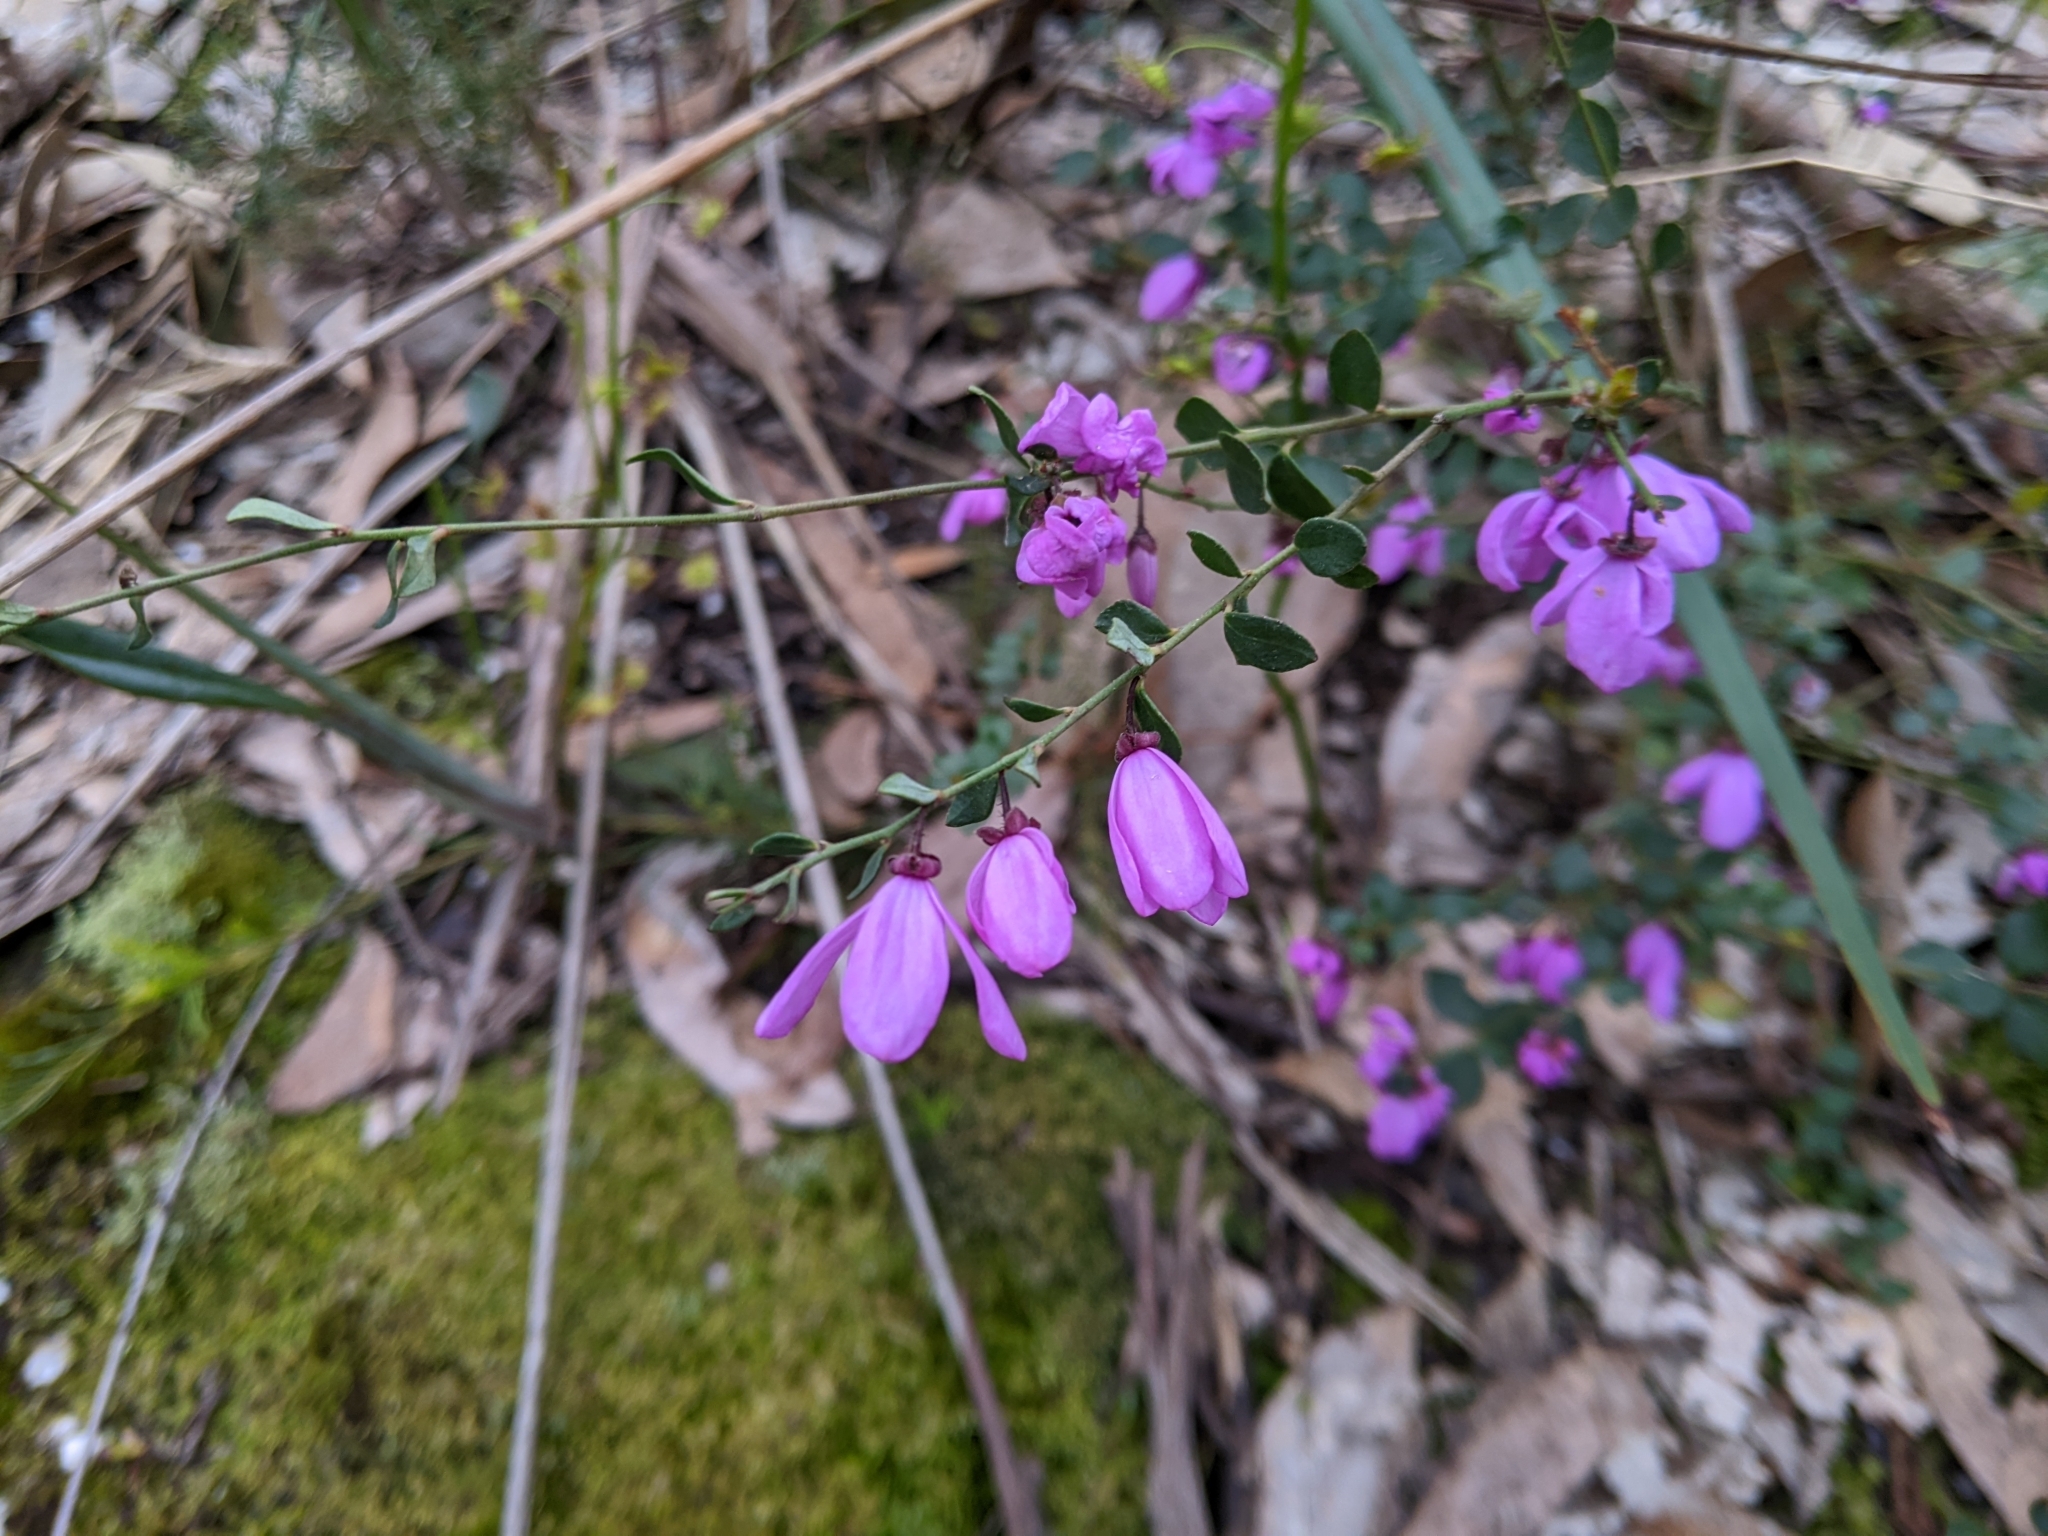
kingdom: Plantae
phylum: Tracheophyta
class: Magnoliopsida
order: Oxalidales
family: Elaeocarpaceae
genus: Tetratheca
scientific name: Tetratheca ciliata
